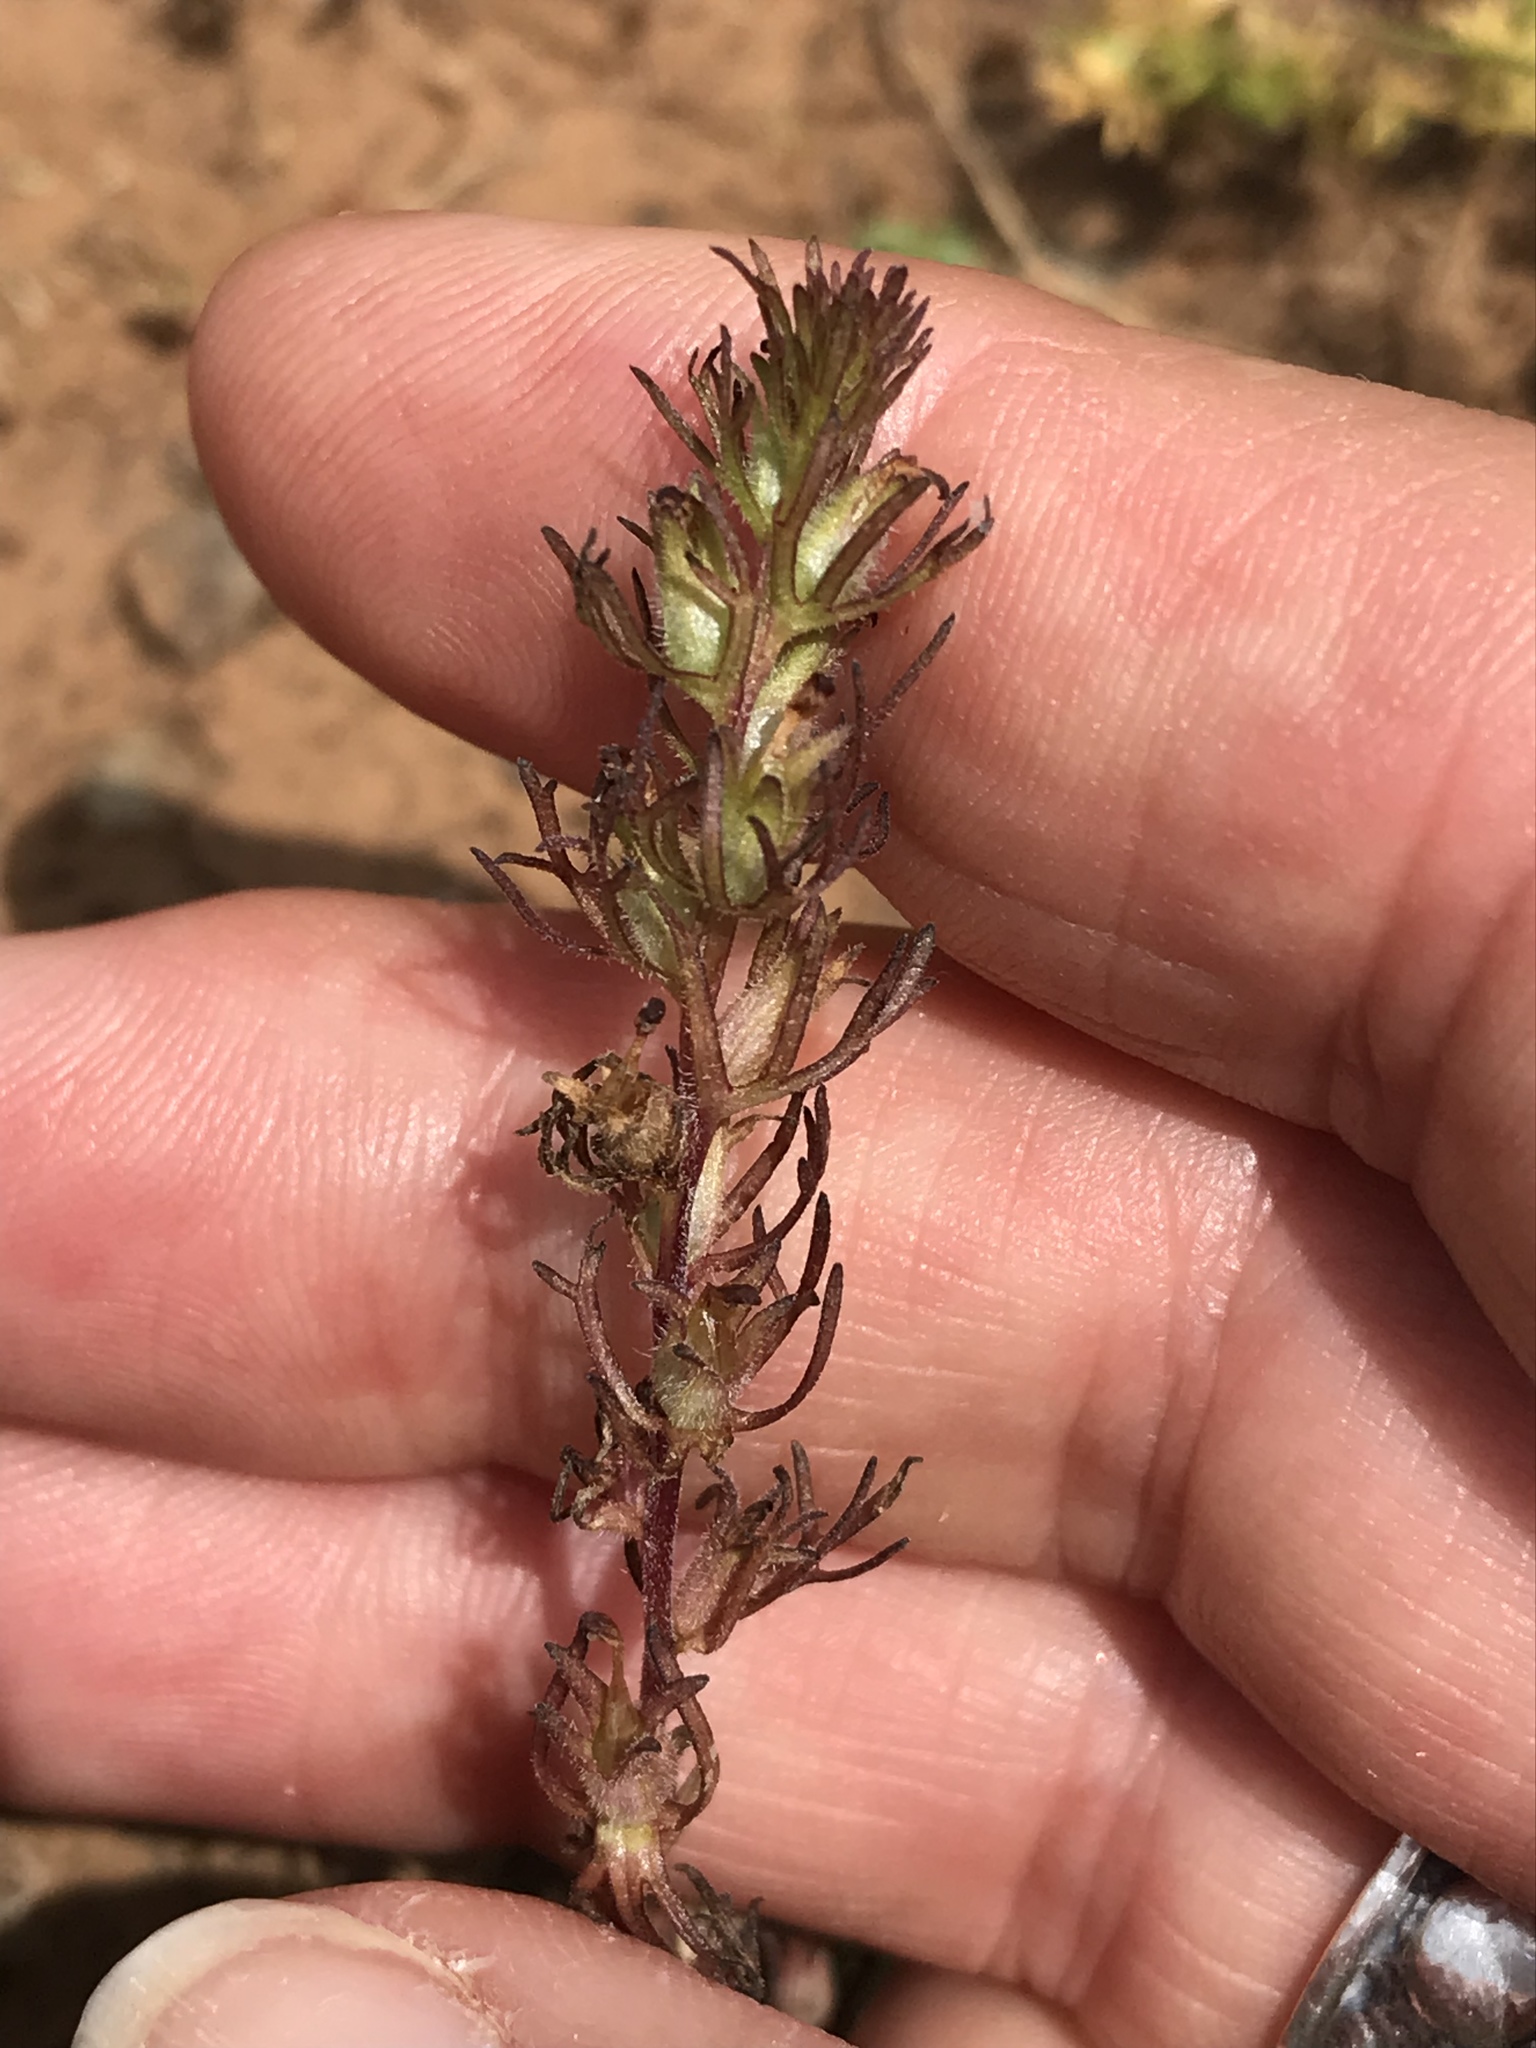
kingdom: Plantae
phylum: Tracheophyta
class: Magnoliopsida
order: Lamiales
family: Orobanchaceae
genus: Triphysaria
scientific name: Triphysaria pusilla
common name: Dwarf false owl-clover
